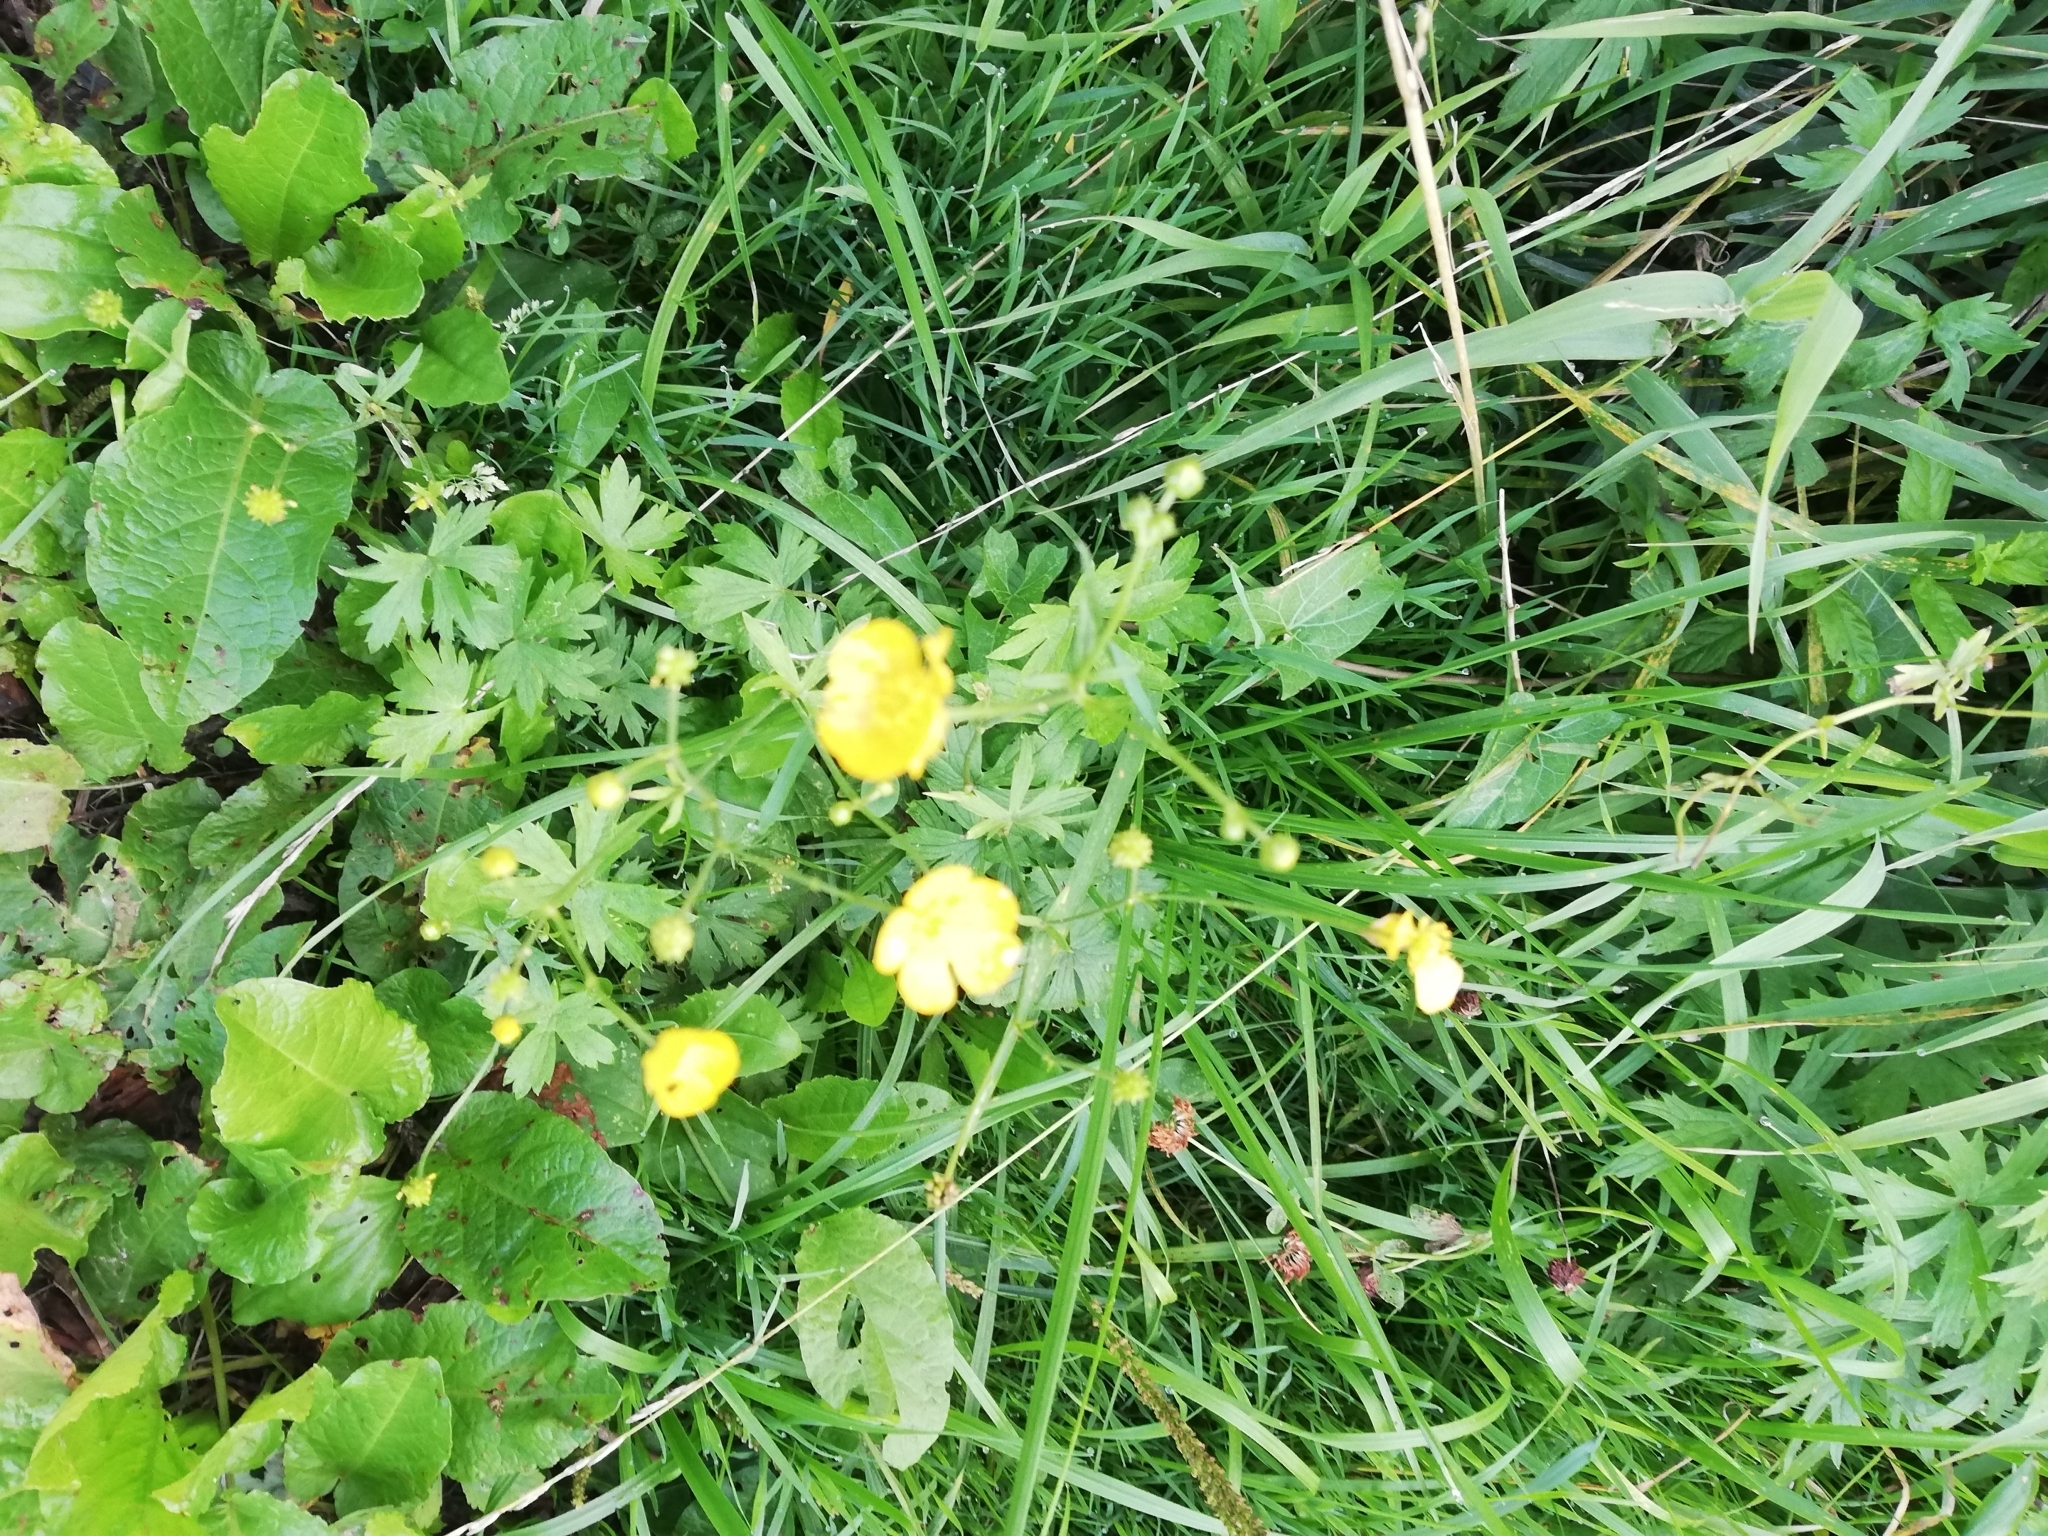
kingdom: Plantae
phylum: Tracheophyta
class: Magnoliopsida
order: Ranunculales
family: Ranunculaceae
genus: Ranunculus
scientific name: Ranunculus acris
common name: Meadow buttercup
